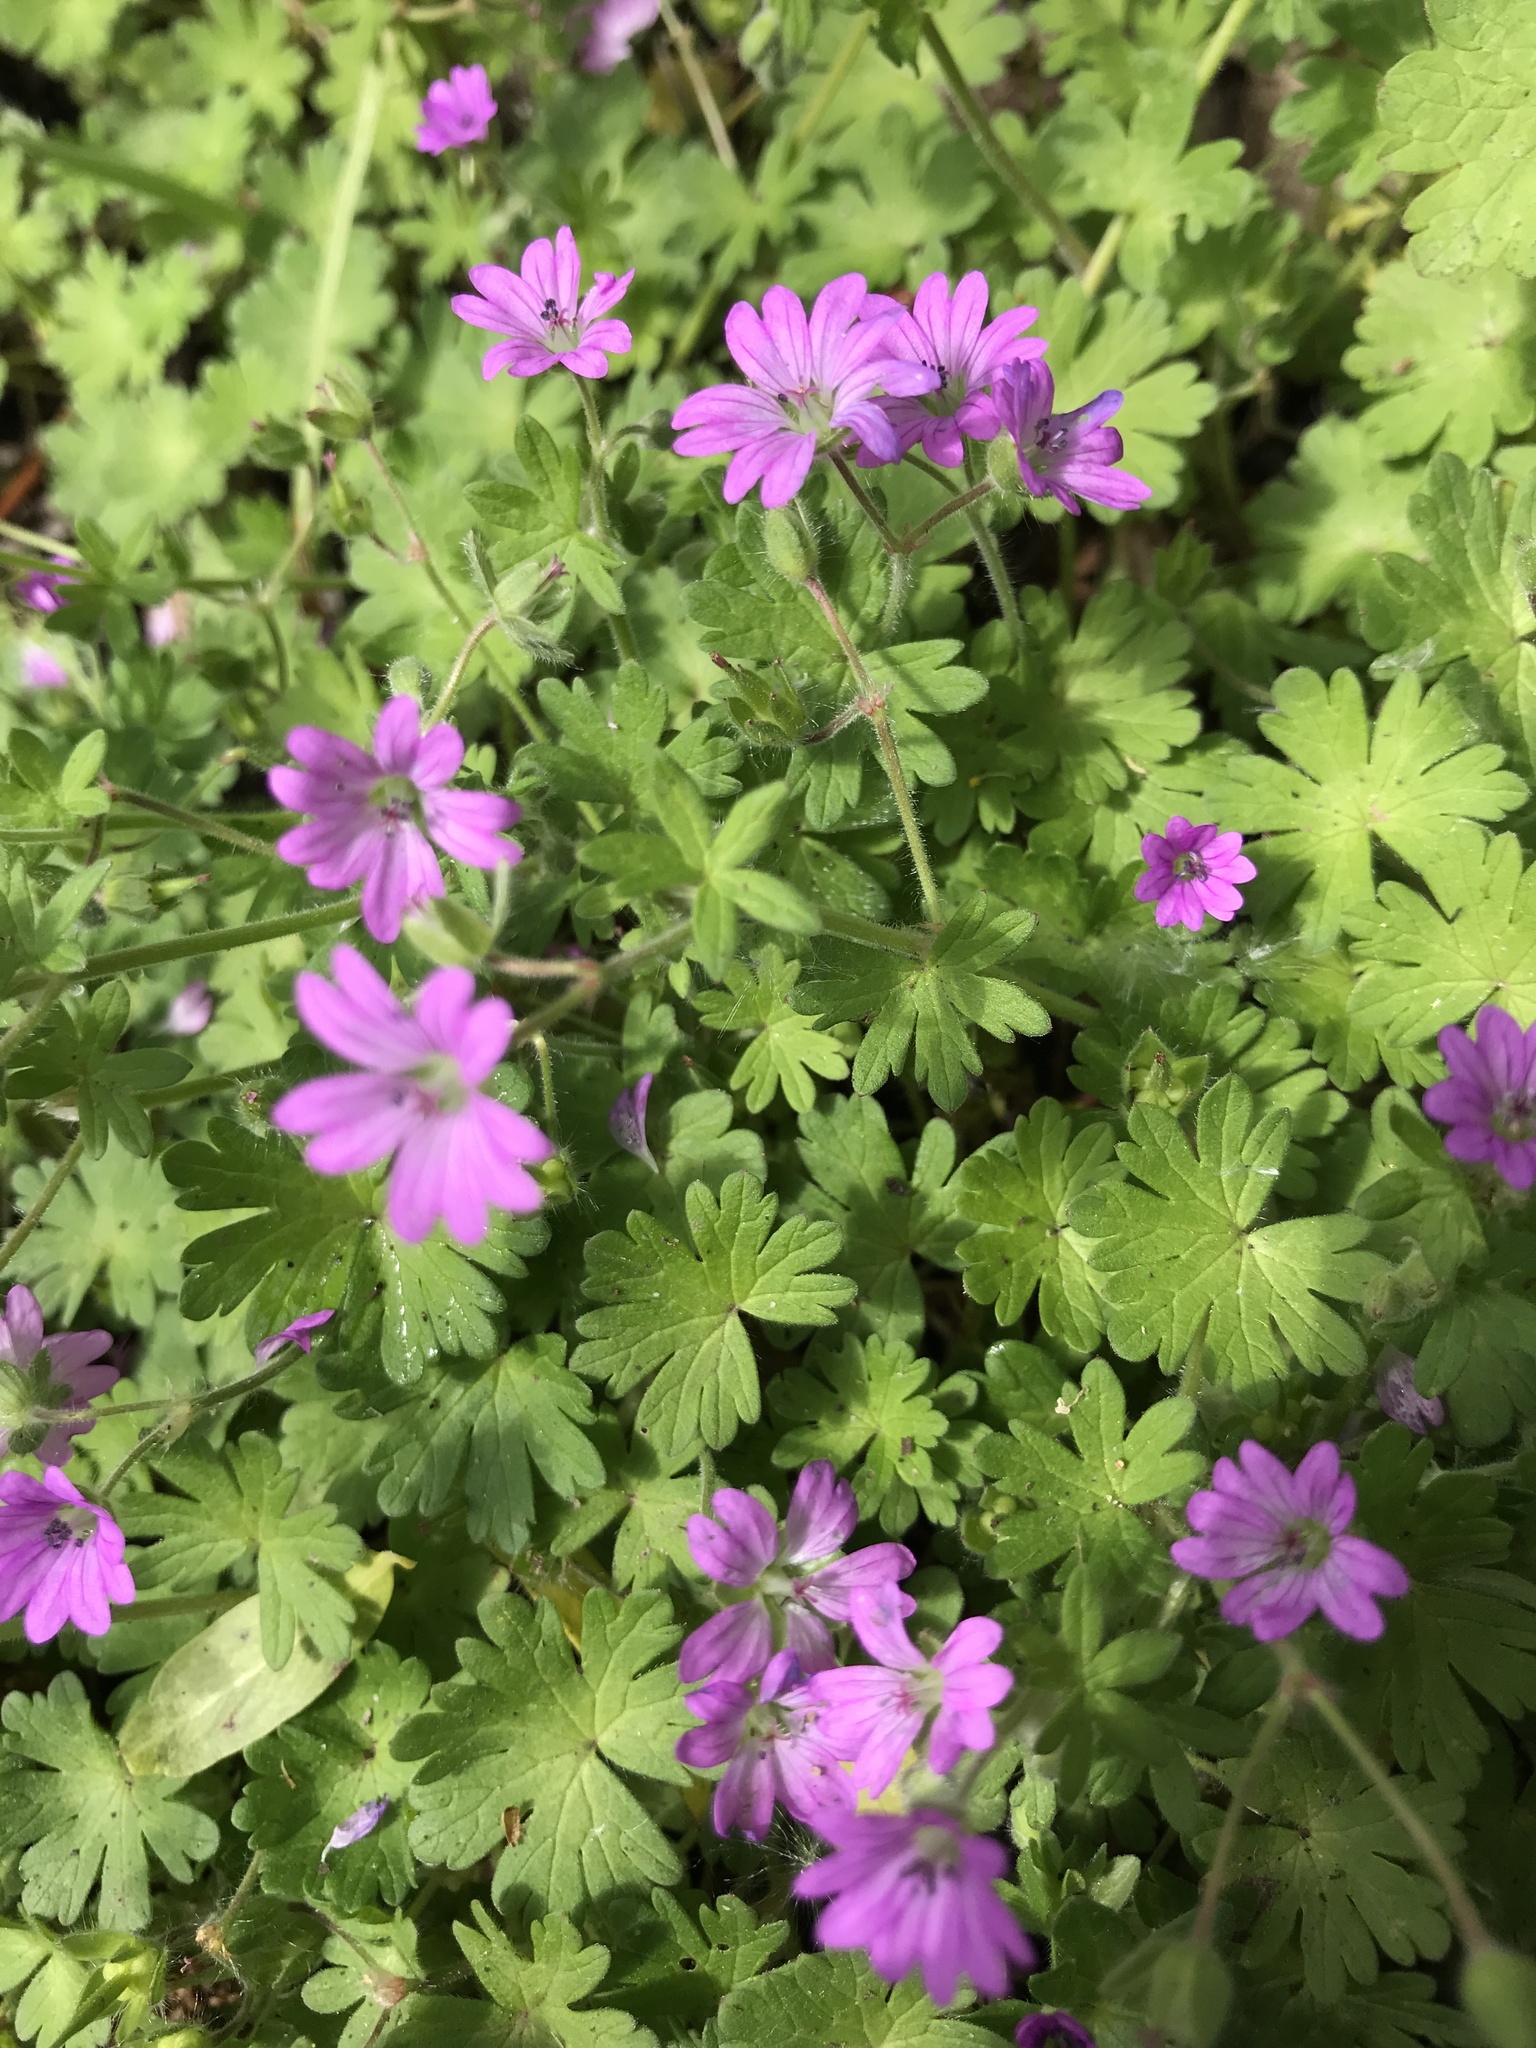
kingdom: Plantae
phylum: Tracheophyta
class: Magnoliopsida
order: Geraniales
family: Geraniaceae
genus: Geranium
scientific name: Geranium molle
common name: Dove's-foot crane's-bill
